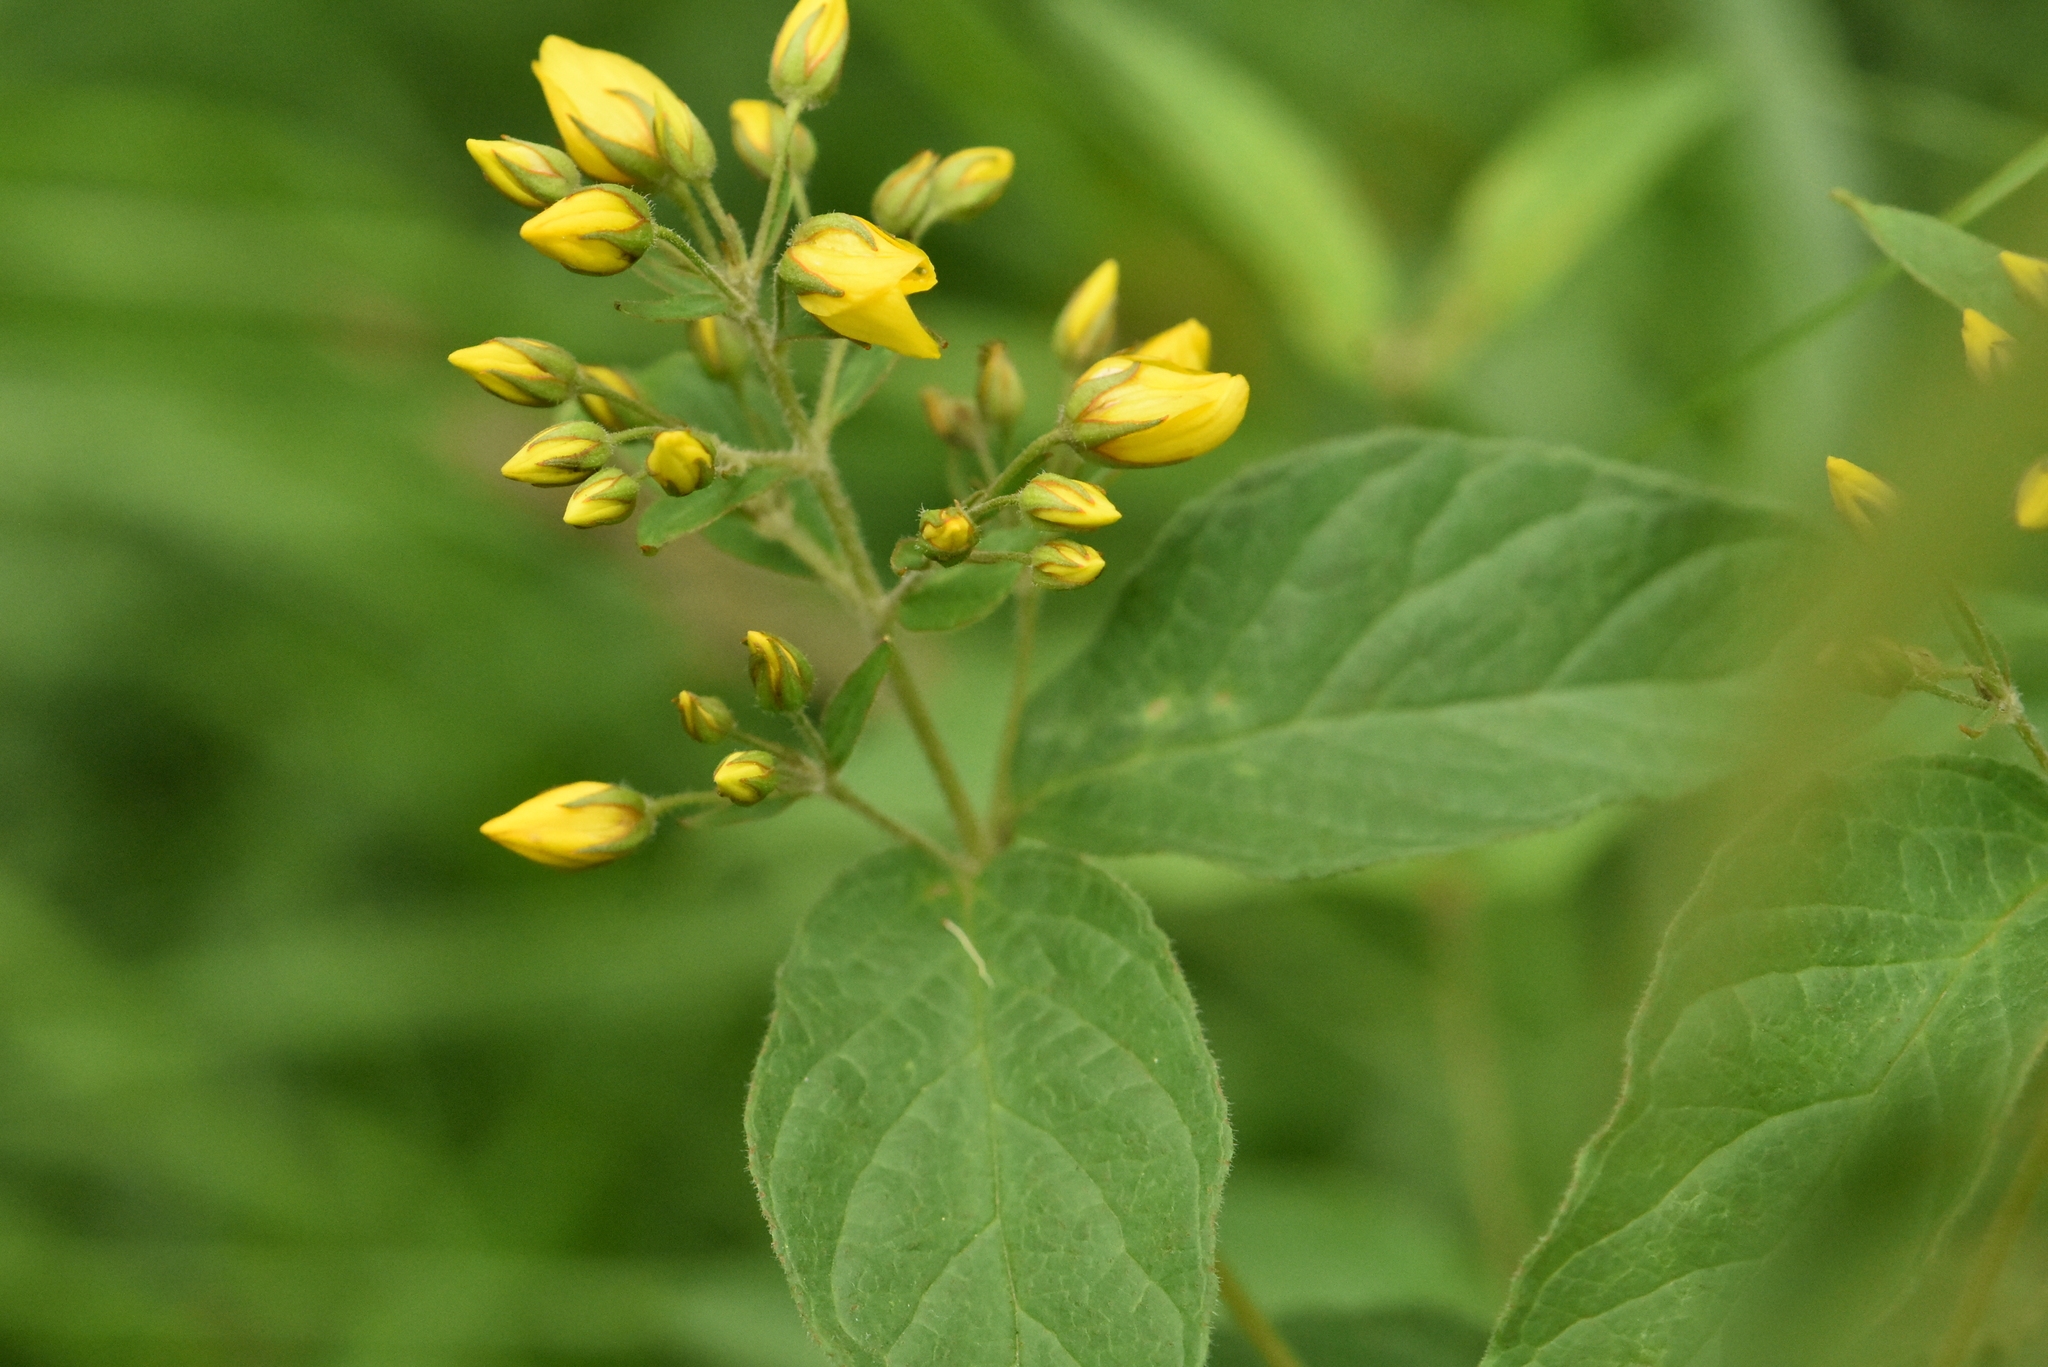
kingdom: Plantae
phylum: Tracheophyta
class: Magnoliopsida
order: Ericales
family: Primulaceae
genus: Lysimachia
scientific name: Lysimachia vulgaris
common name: Yellow loosestrife
